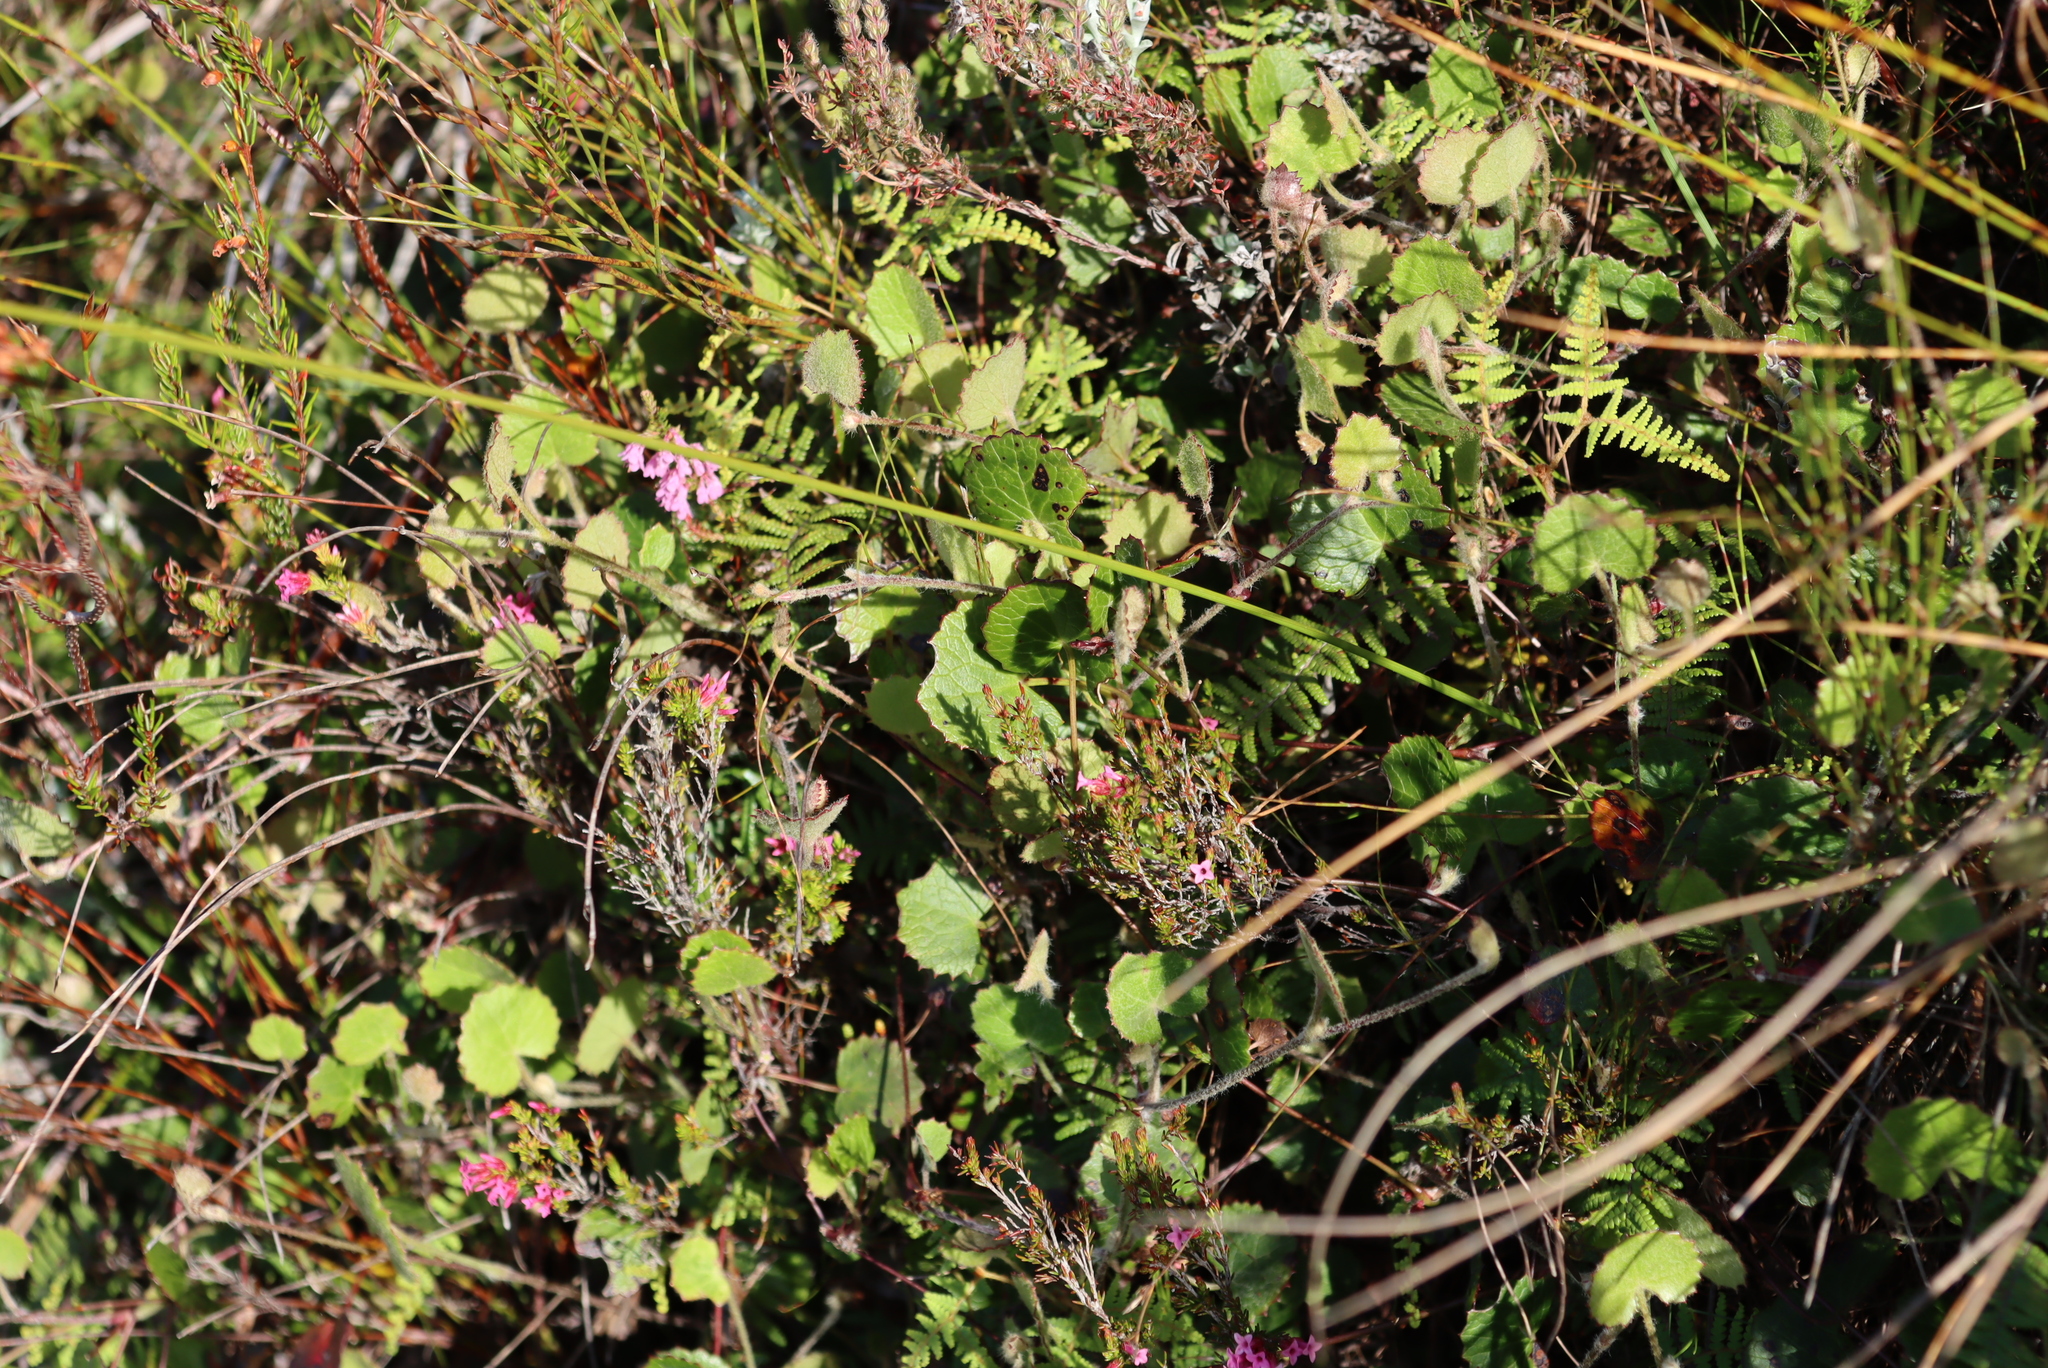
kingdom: Plantae
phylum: Tracheophyta
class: Magnoliopsida
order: Apiales
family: Apiaceae
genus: Centella
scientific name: Centella eriantha
